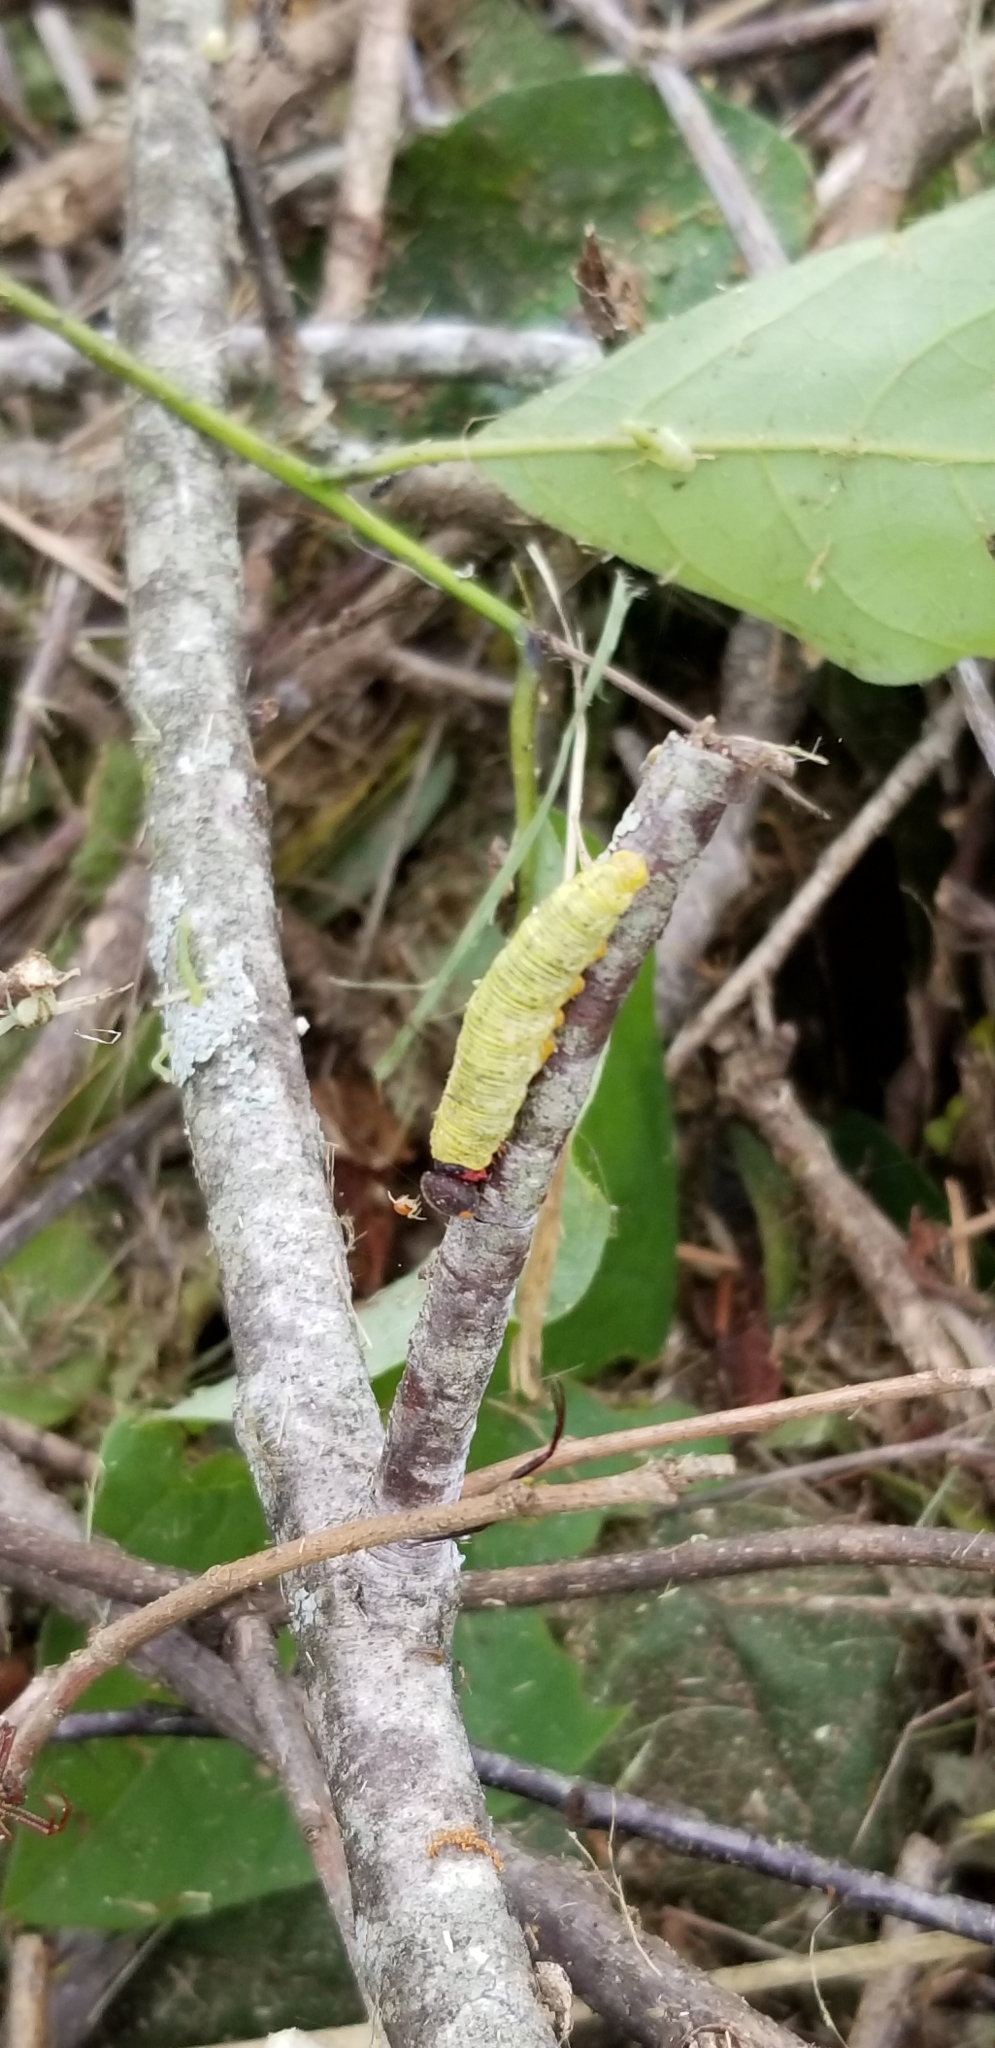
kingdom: Animalia
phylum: Arthropoda
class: Insecta
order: Lepidoptera
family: Hesperiidae
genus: Epargyreus
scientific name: Epargyreus clarus
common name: Silver-spotted skipper
